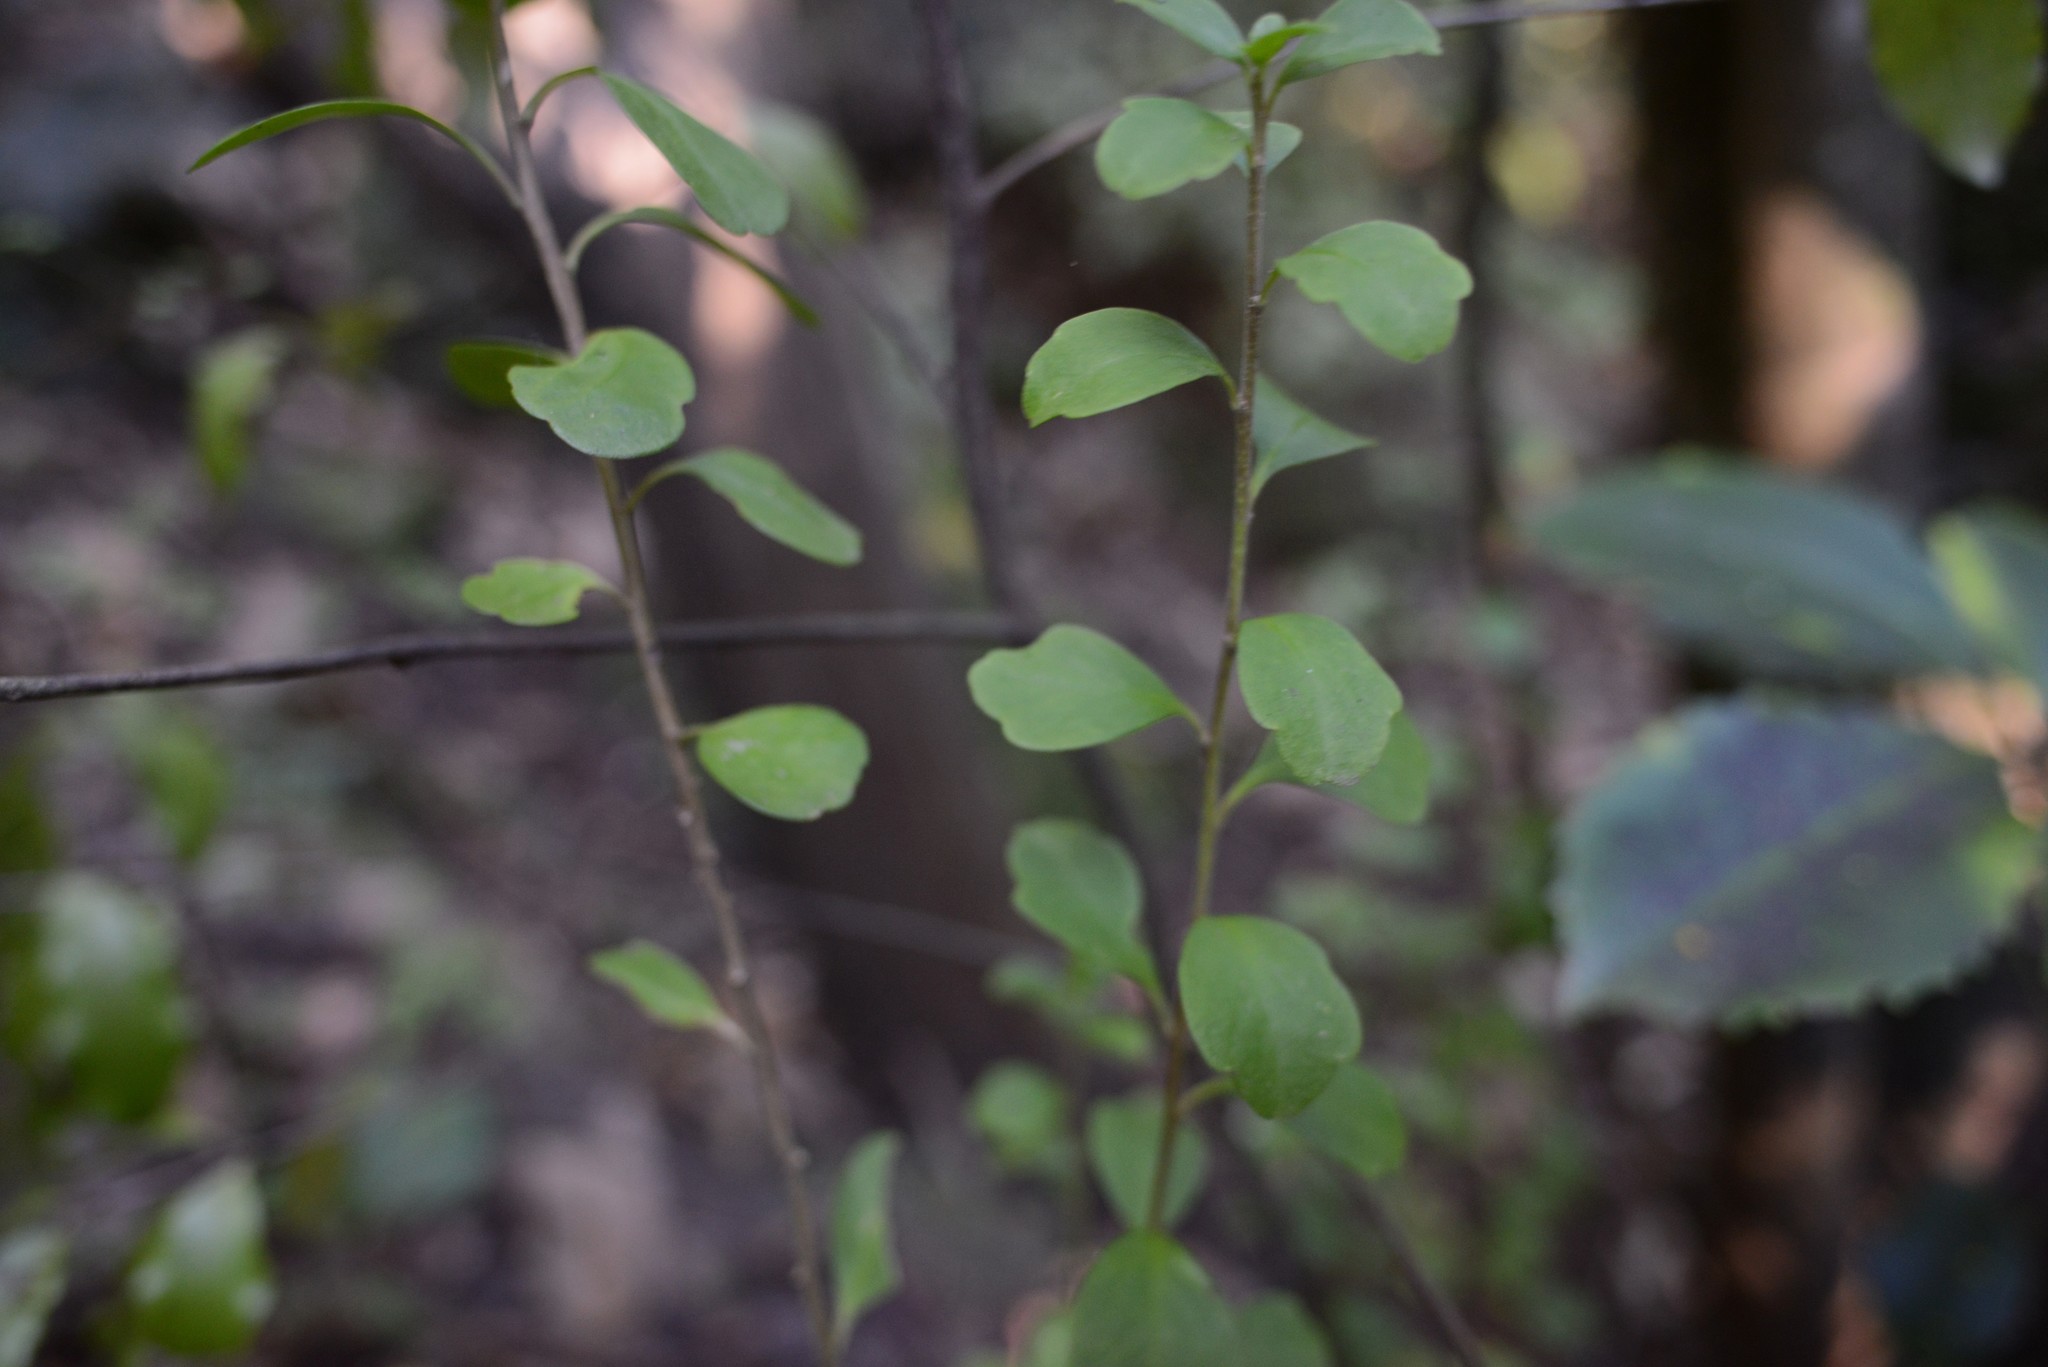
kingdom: Plantae
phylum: Tracheophyta
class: Magnoliopsida
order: Malpighiales
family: Violaceae
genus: Melicytus
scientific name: Melicytus obovatus
